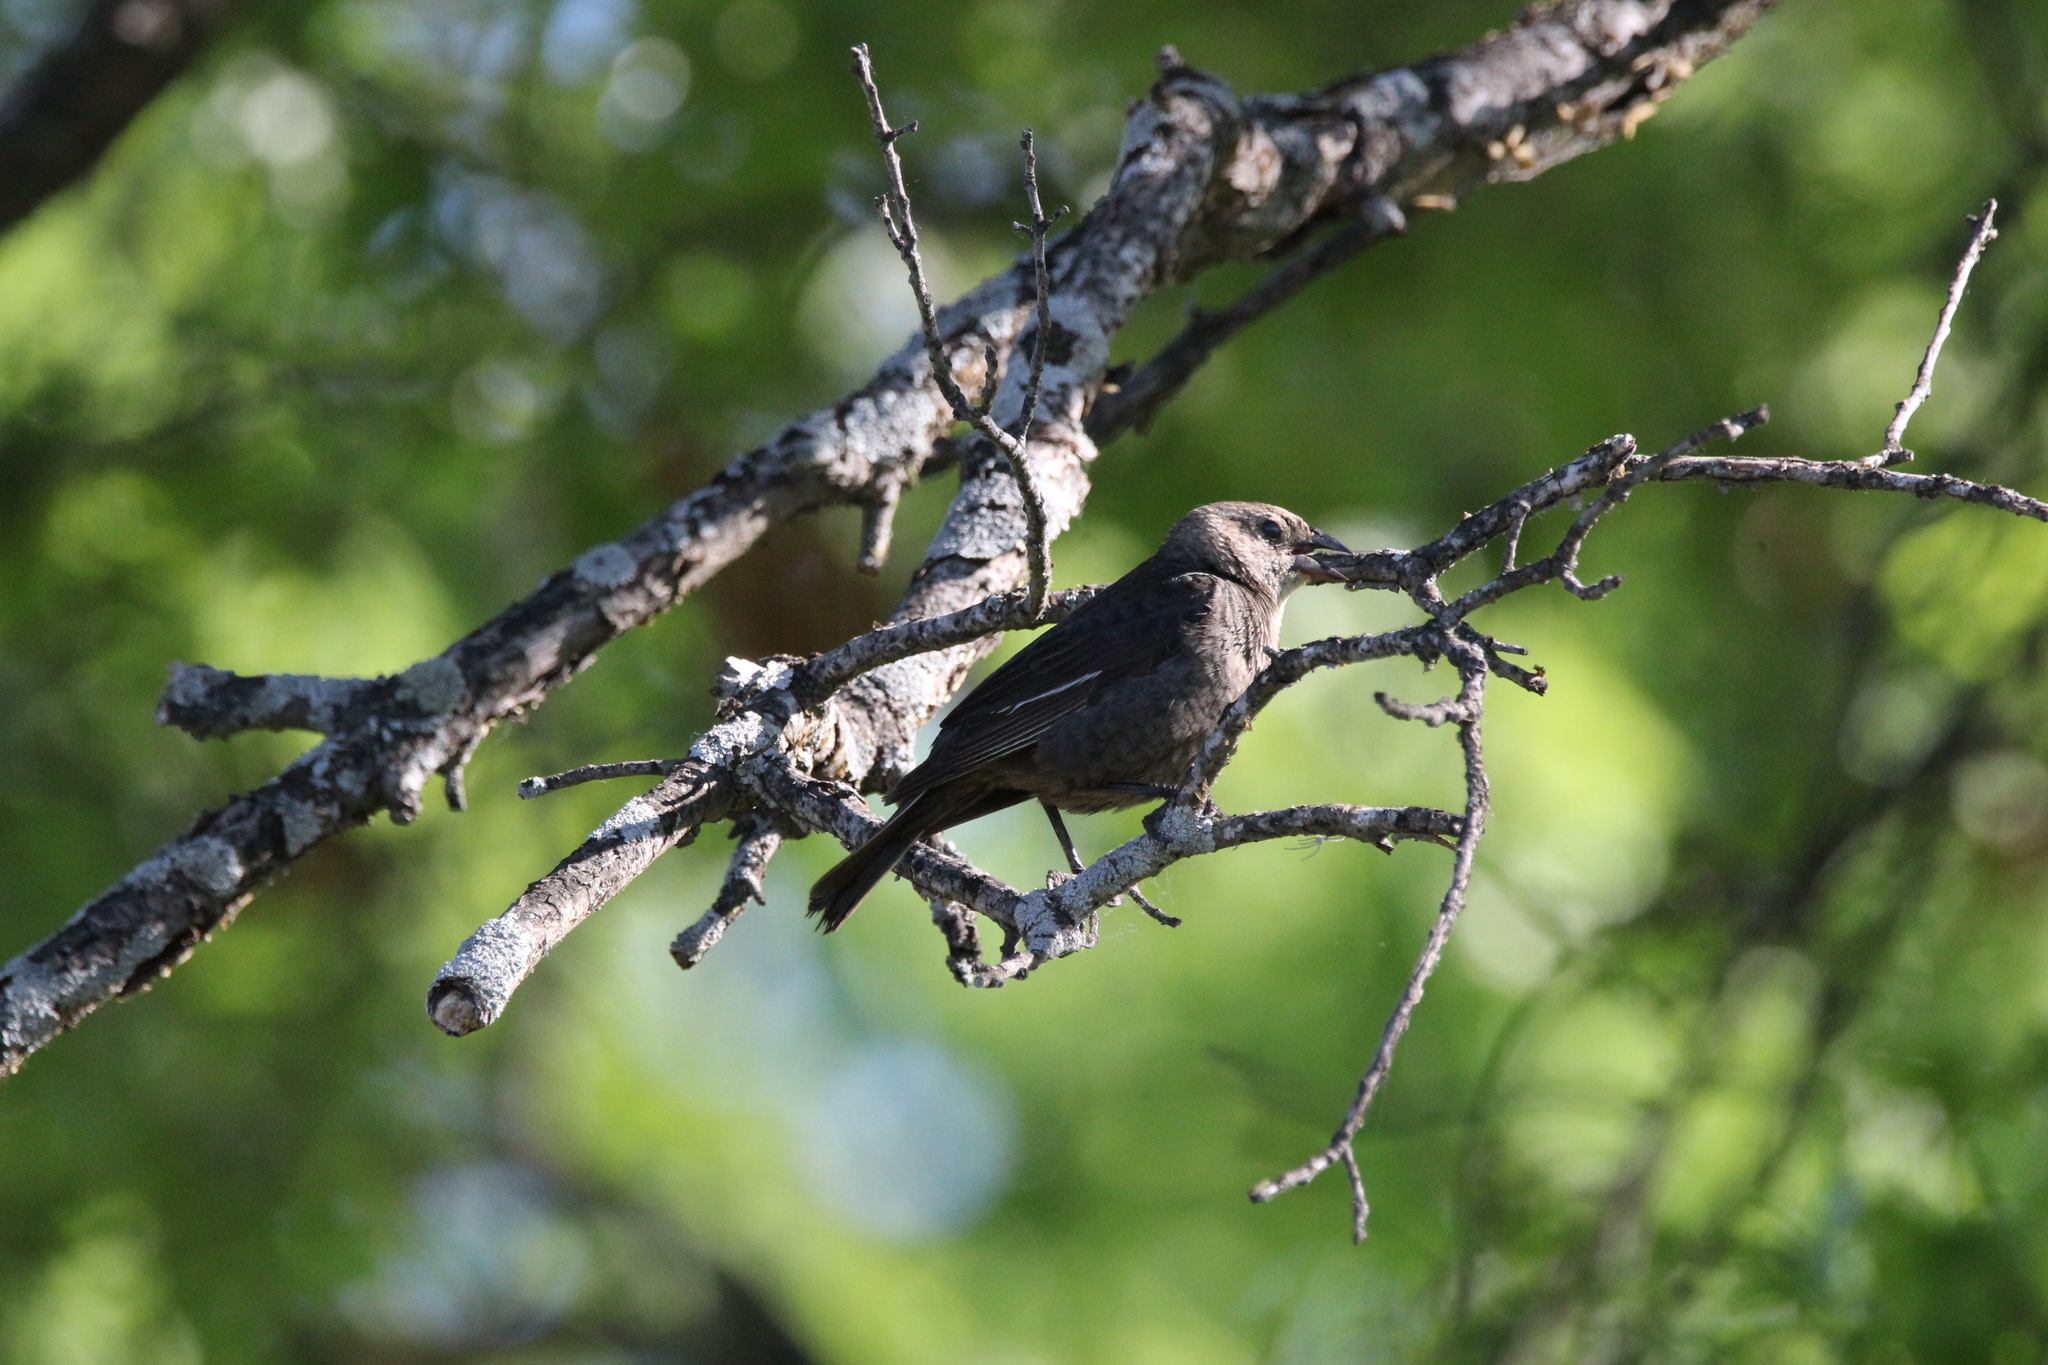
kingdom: Animalia
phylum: Chordata
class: Aves
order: Passeriformes
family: Icteridae
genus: Molothrus
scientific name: Molothrus ater
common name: Brown-headed cowbird
